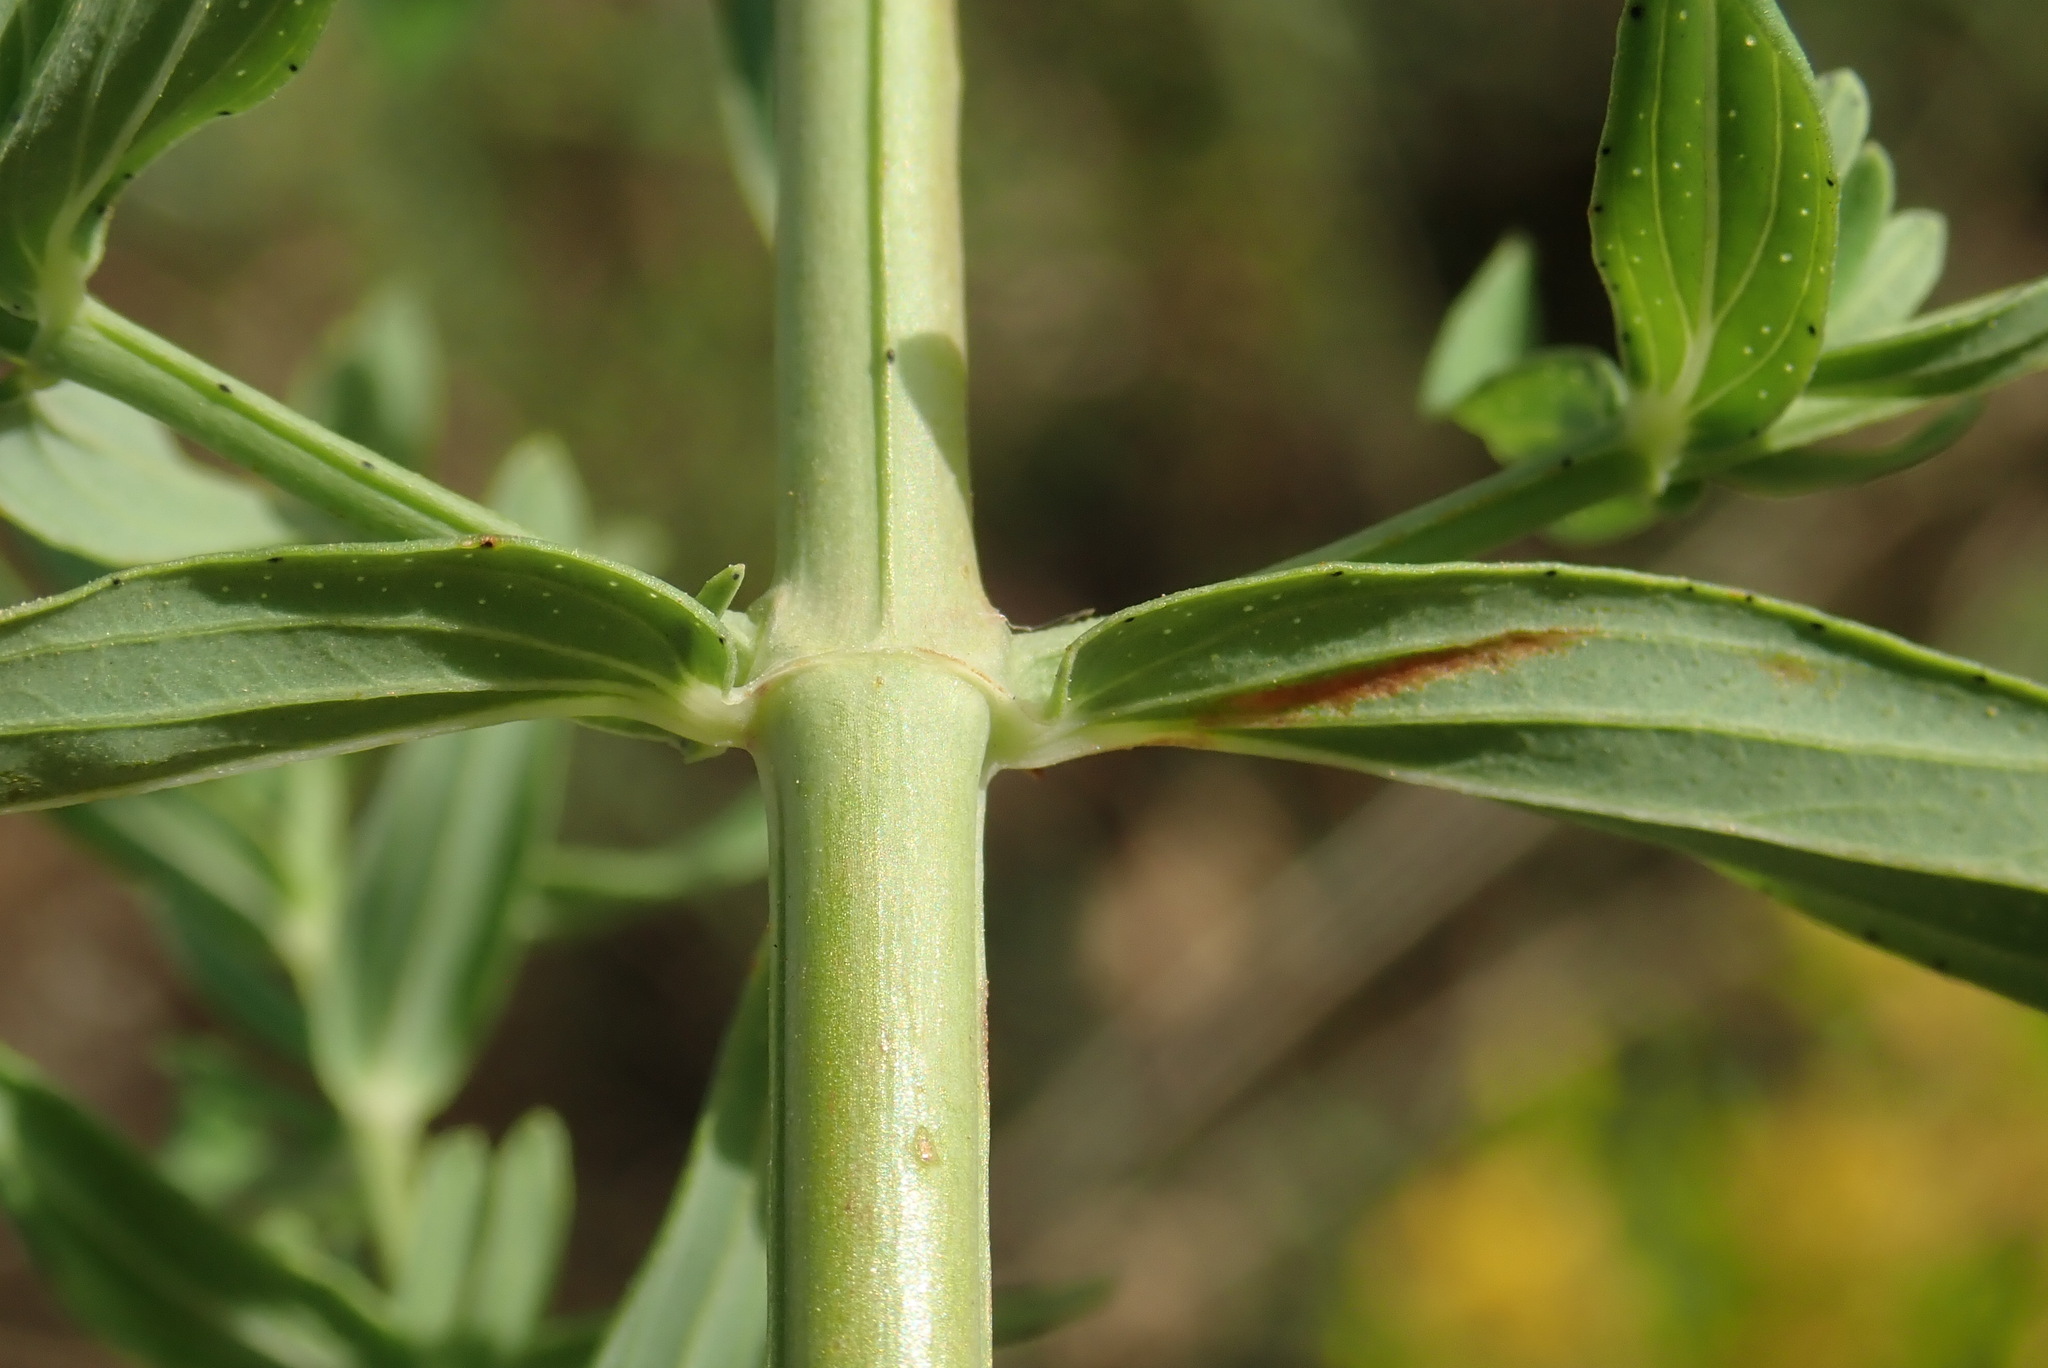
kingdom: Plantae
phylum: Tracheophyta
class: Magnoliopsida
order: Malpighiales
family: Hypericaceae
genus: Hypericum
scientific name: Hypericum perforatum
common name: Common st. johnswort
